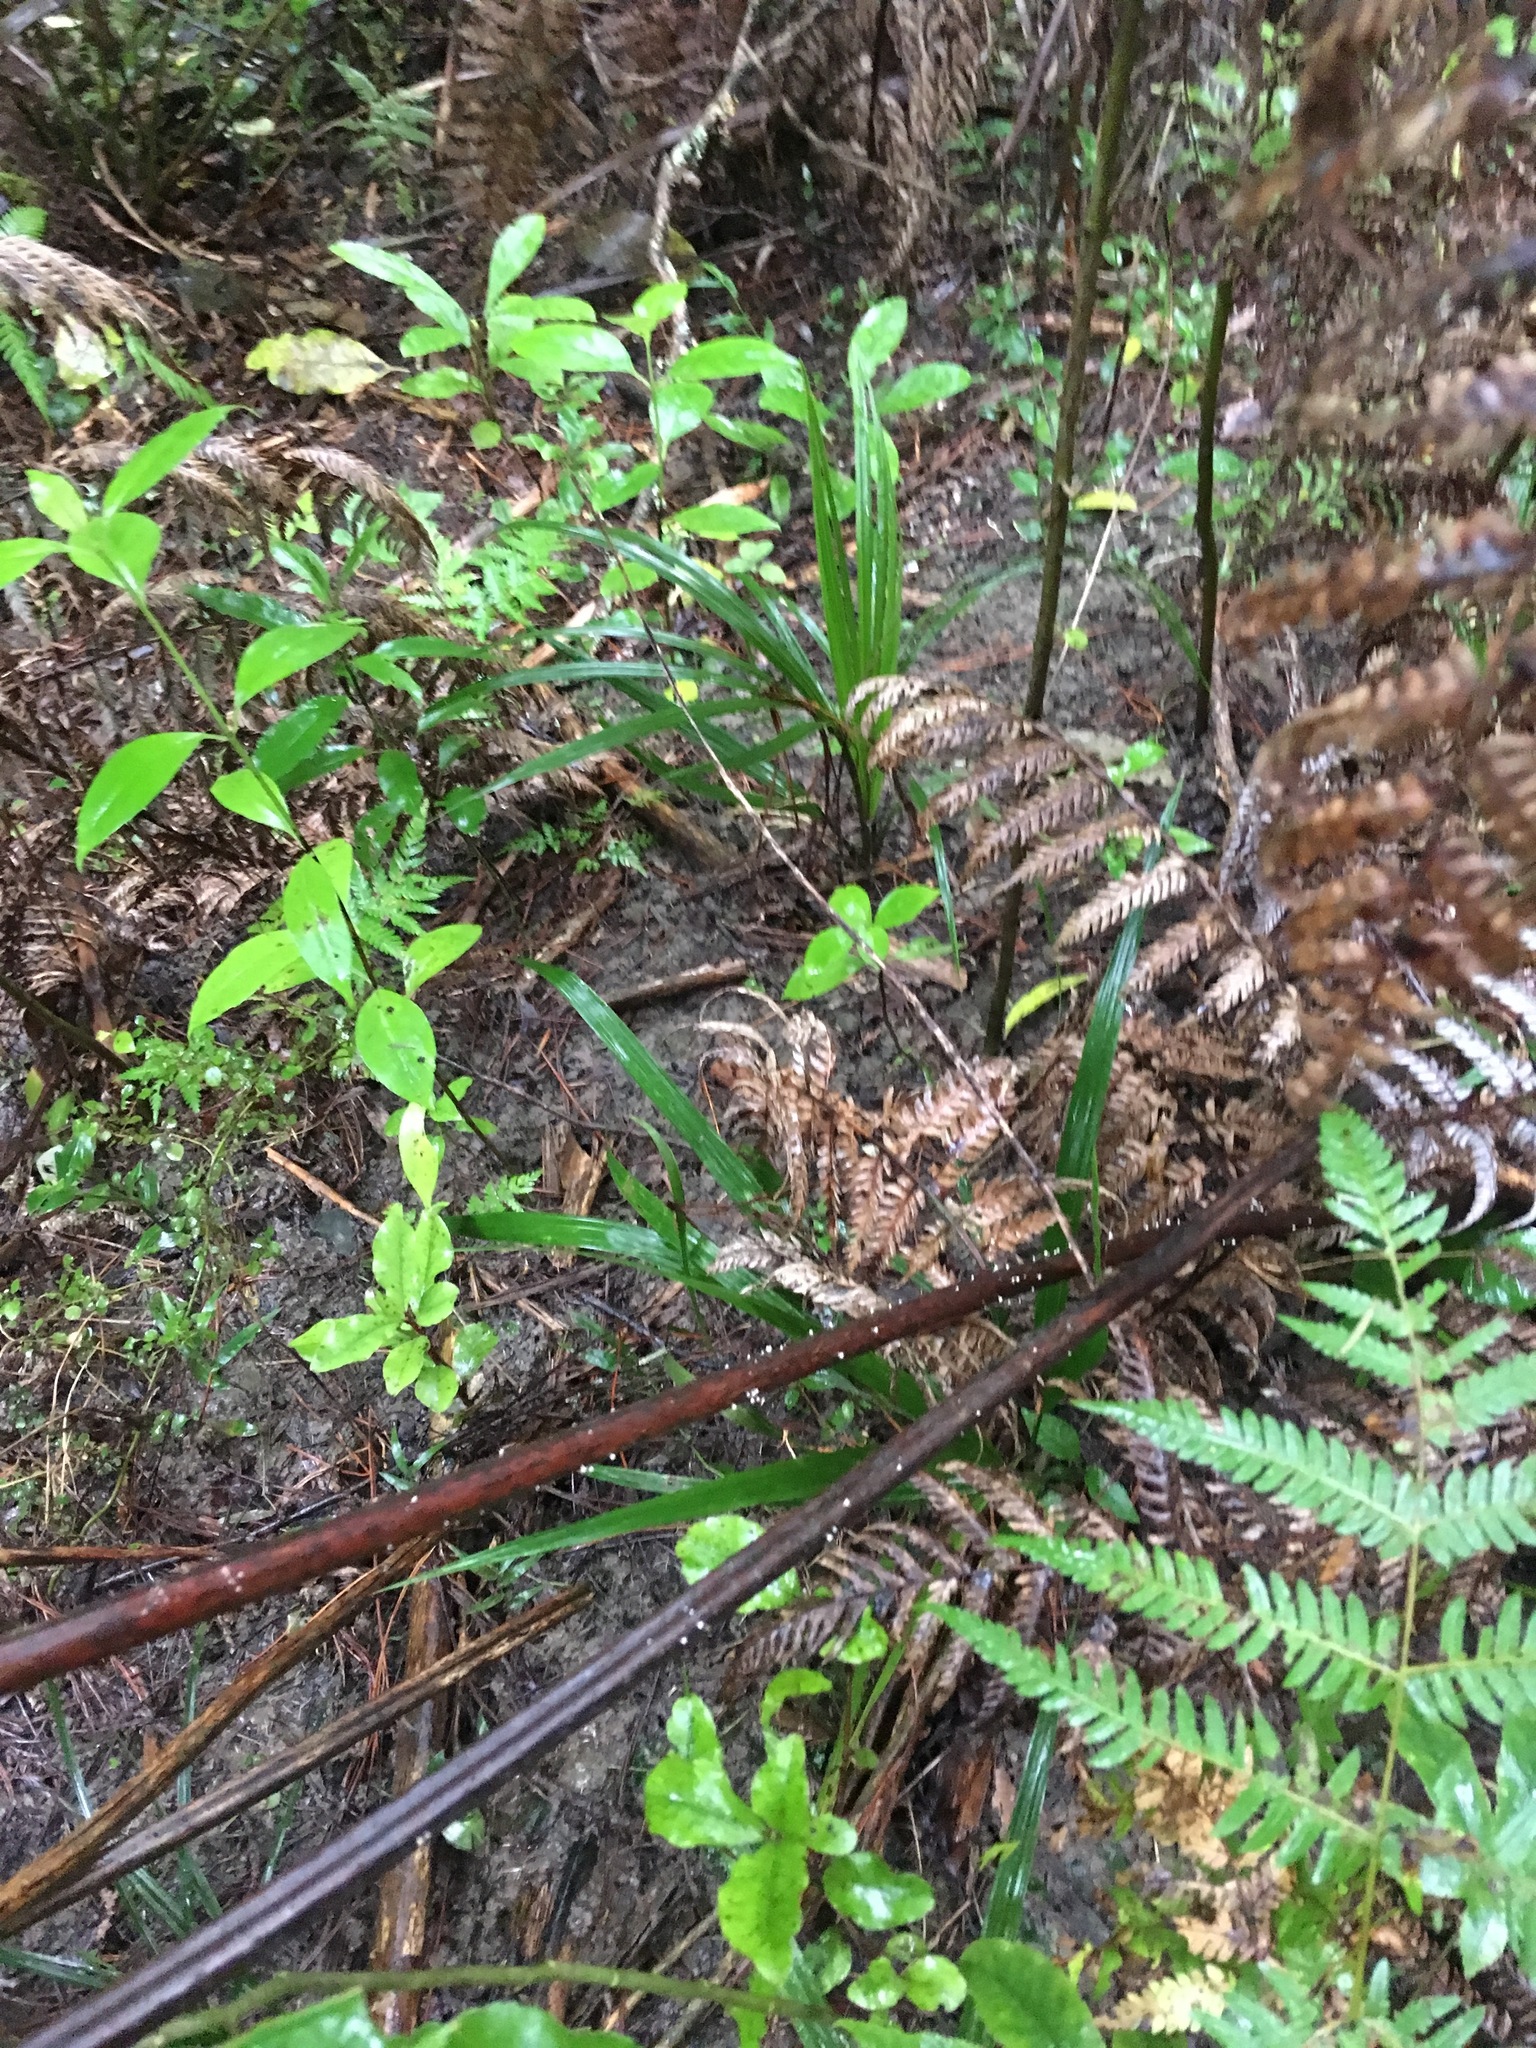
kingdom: Plantae
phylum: Tracheophyta
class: Liliopsida
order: Arecales
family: Arecaceae
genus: Rhopalostylis
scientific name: Rhopalostylis sapida
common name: Feather-duster palm
